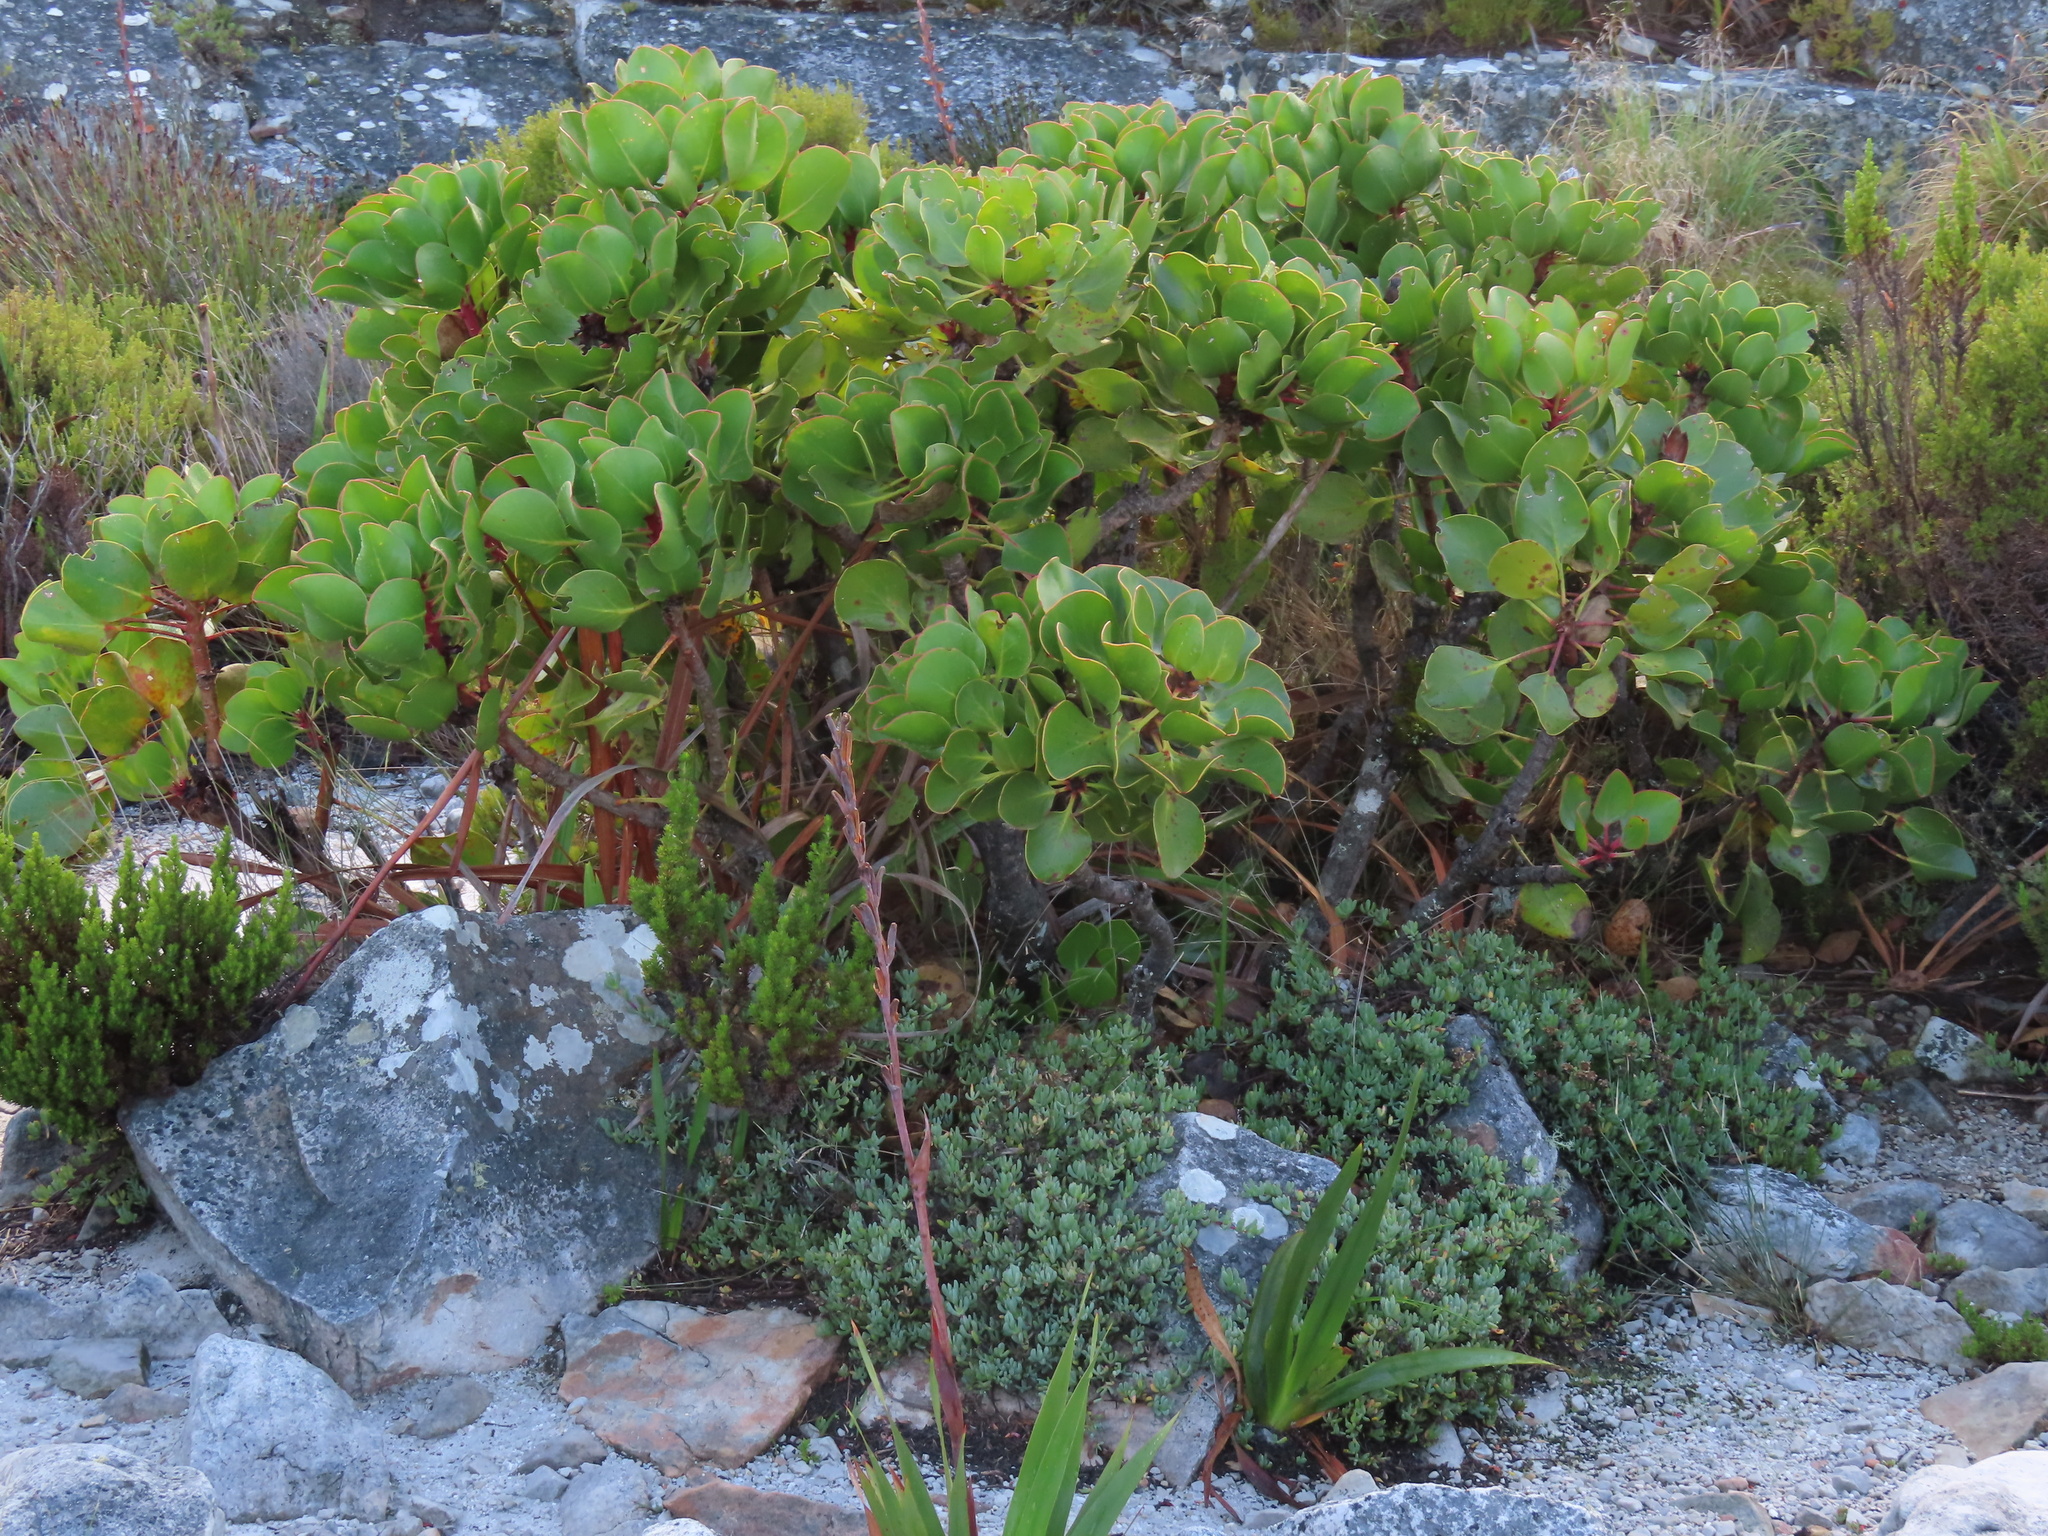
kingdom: Plantae
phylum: Tracheophyta
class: Magnoliopsida
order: Proteales
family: Proteaceae
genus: Protea
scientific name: Protea cynaroides
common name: King protea
